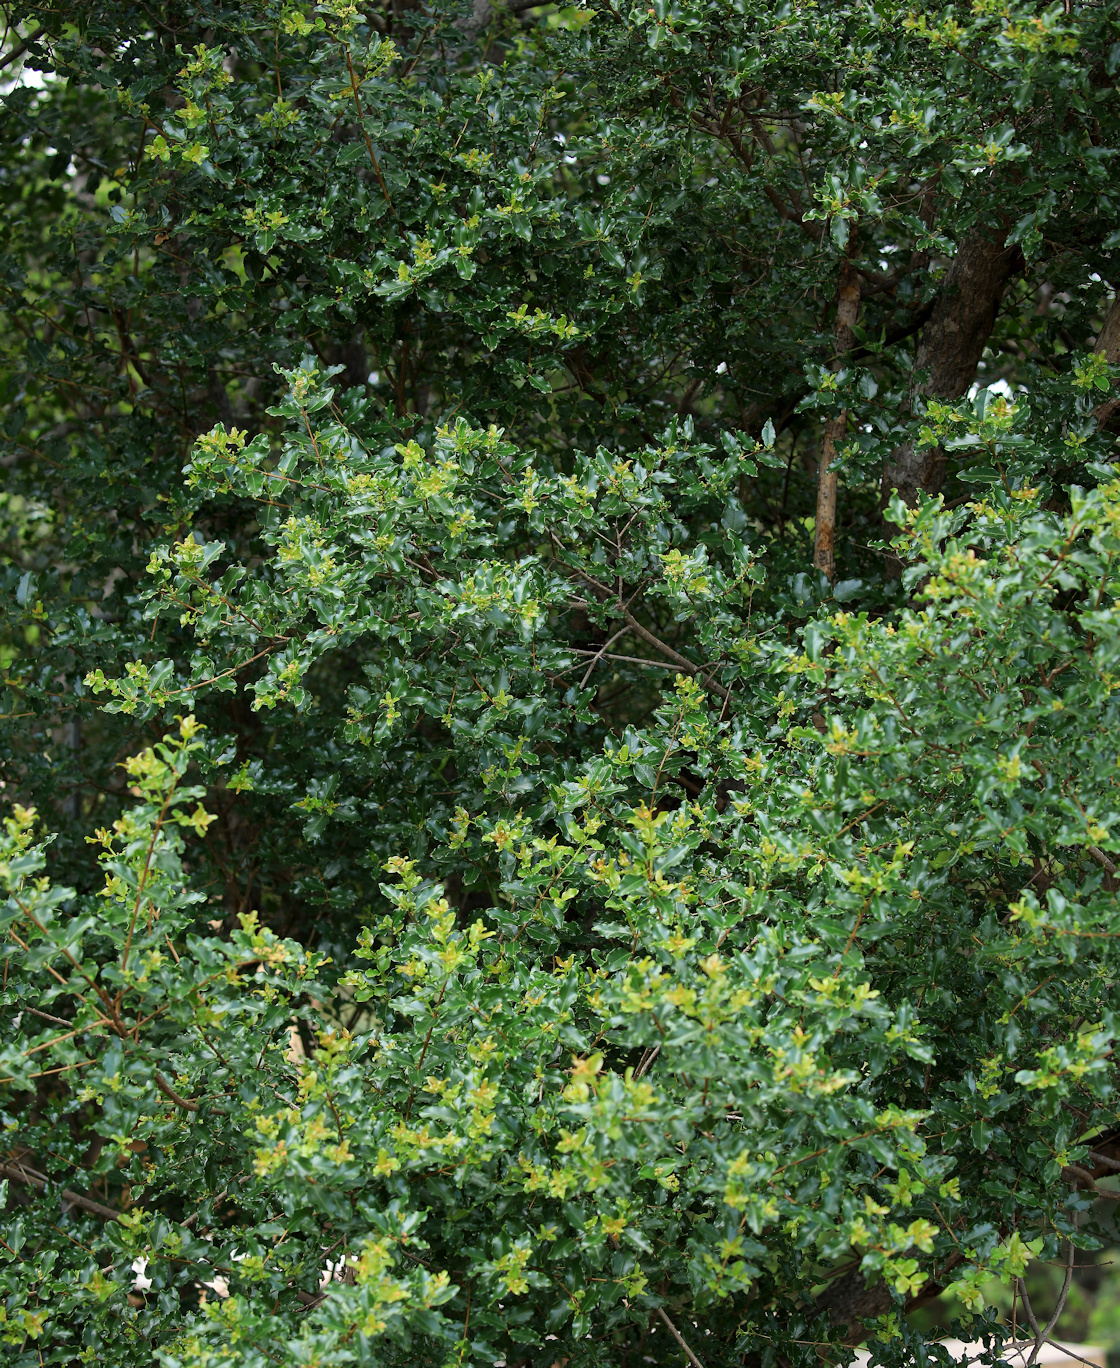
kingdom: Plantae
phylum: Tracheophyta
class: Magnoliopsida
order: Myrtales
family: Lythraceae
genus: Galpinia
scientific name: Galpinia transvaalica
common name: Wild pride of india
